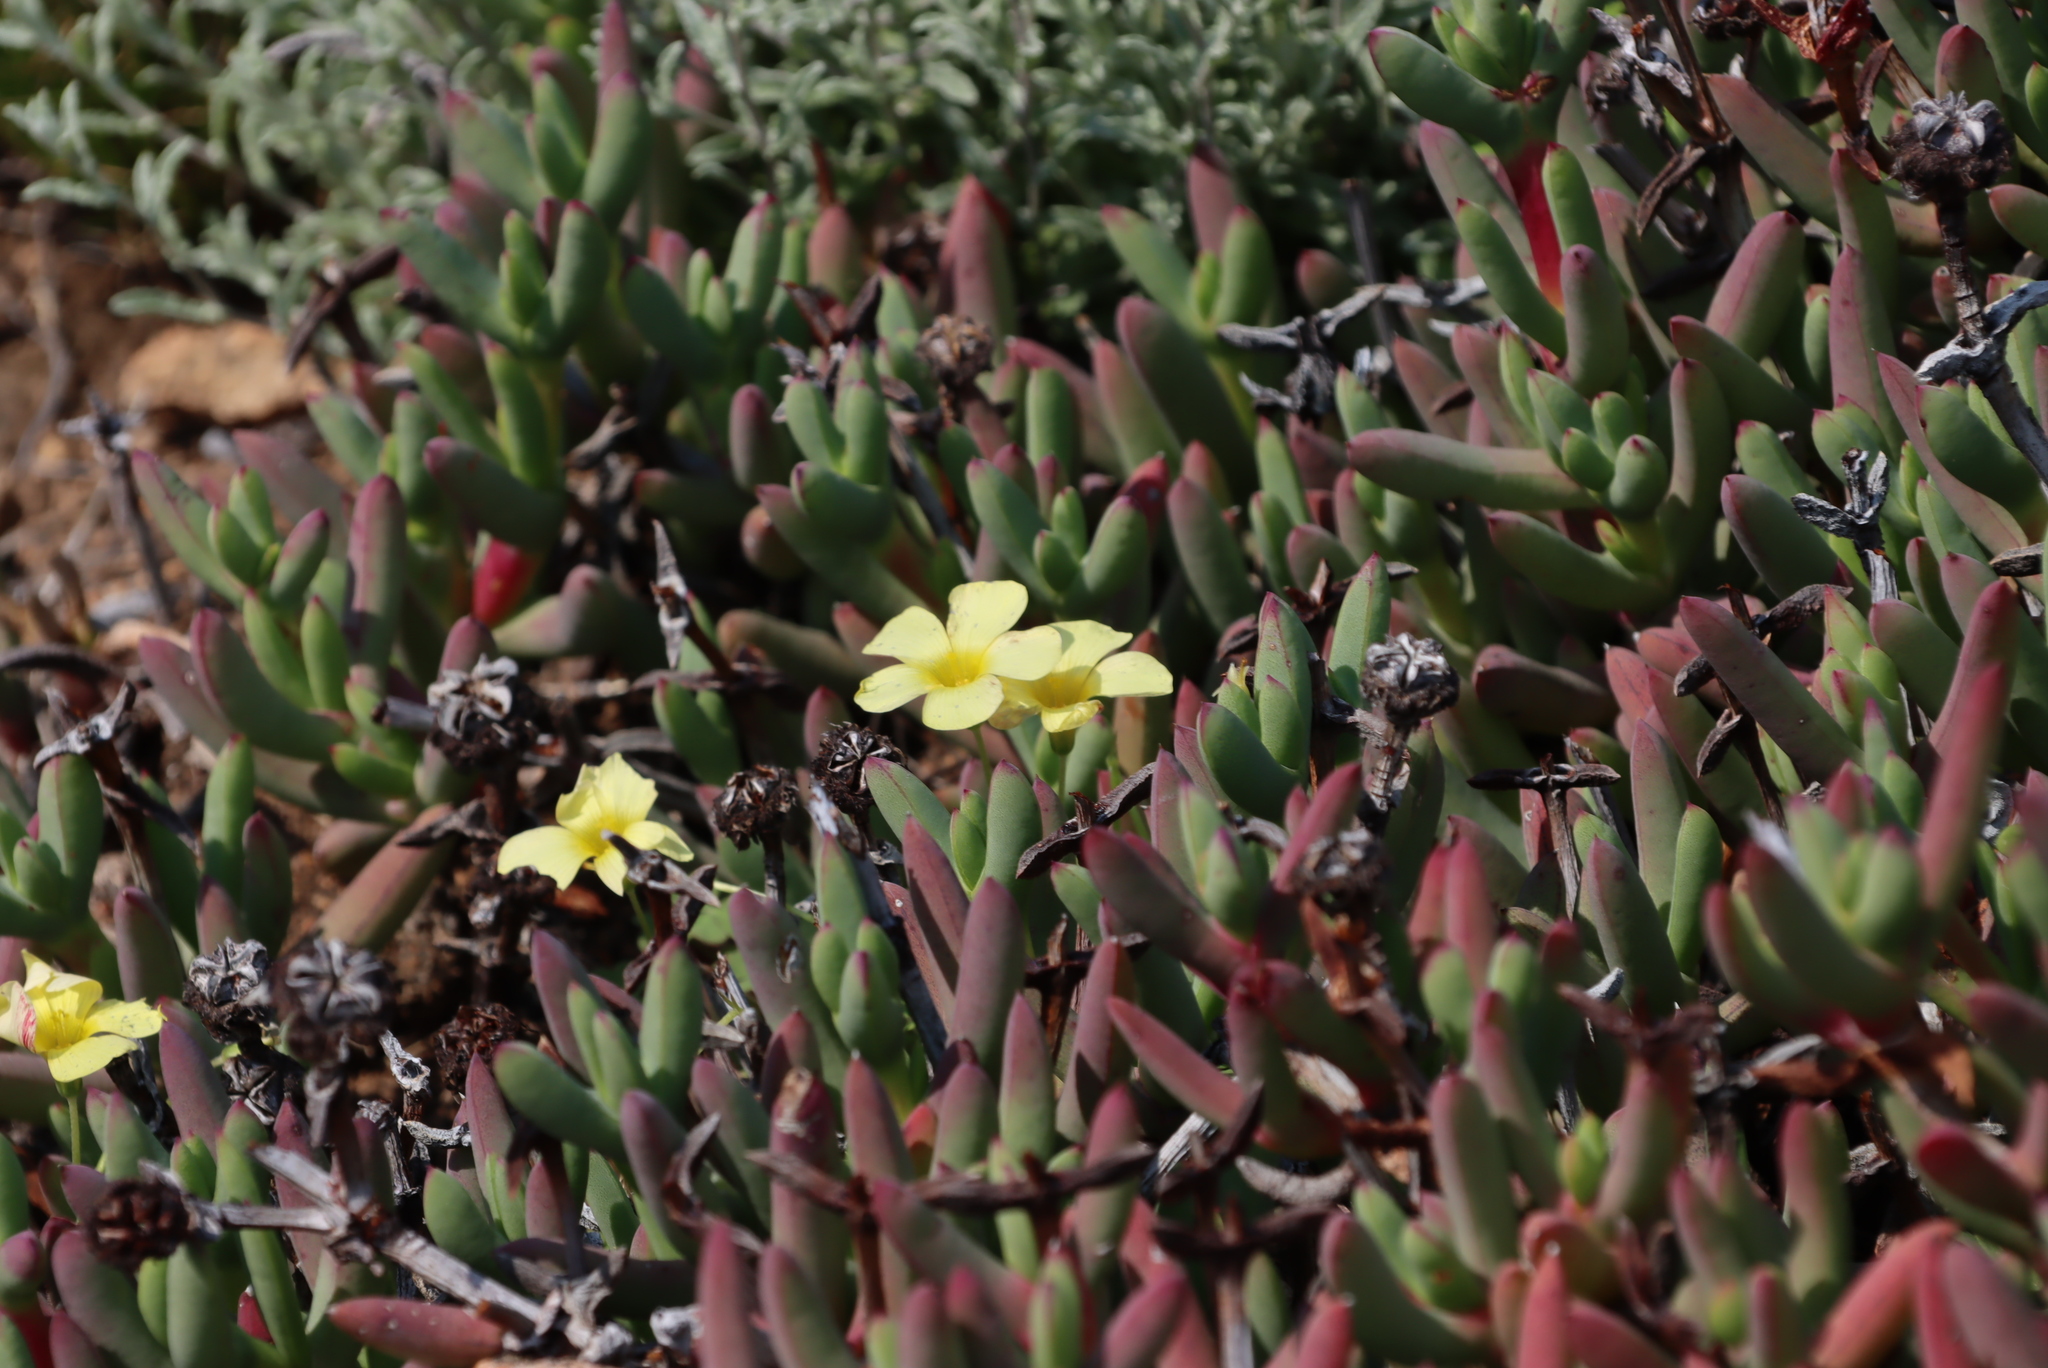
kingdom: Plantae
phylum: Tracheophyta
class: Magnoliopsida
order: Oxalidales
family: Oxalidaceae
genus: Oxalis
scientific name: Oxalis obtusa
